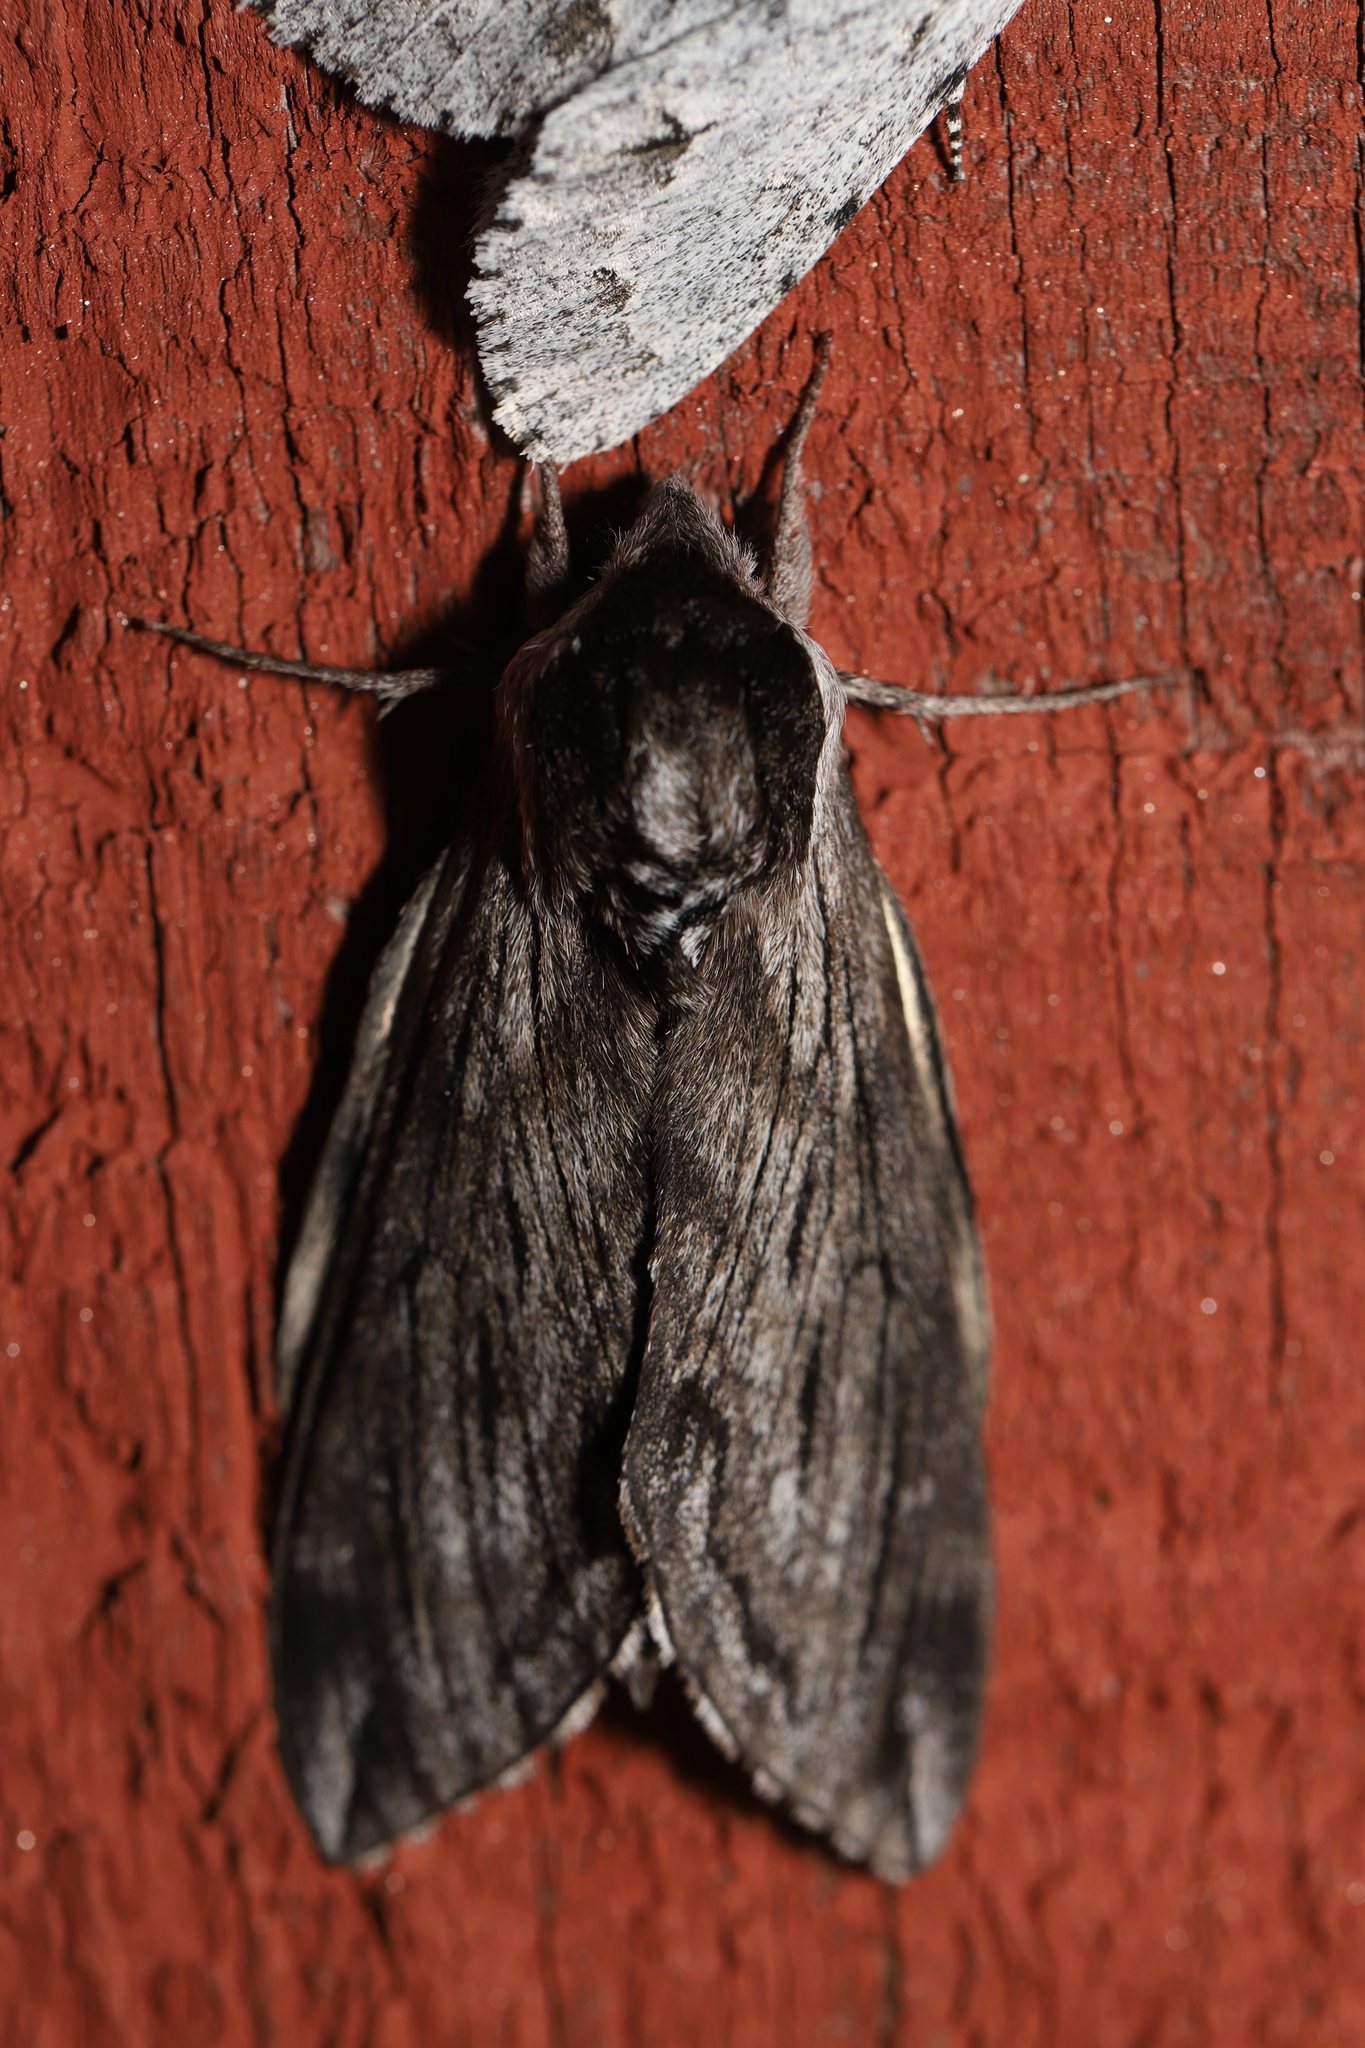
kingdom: Animalia
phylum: Arthropoda
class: Insecta
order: Lepidoptera
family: Sphingidae
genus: Sphinx
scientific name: Sphinx poecila
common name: Northern apple sphinx
